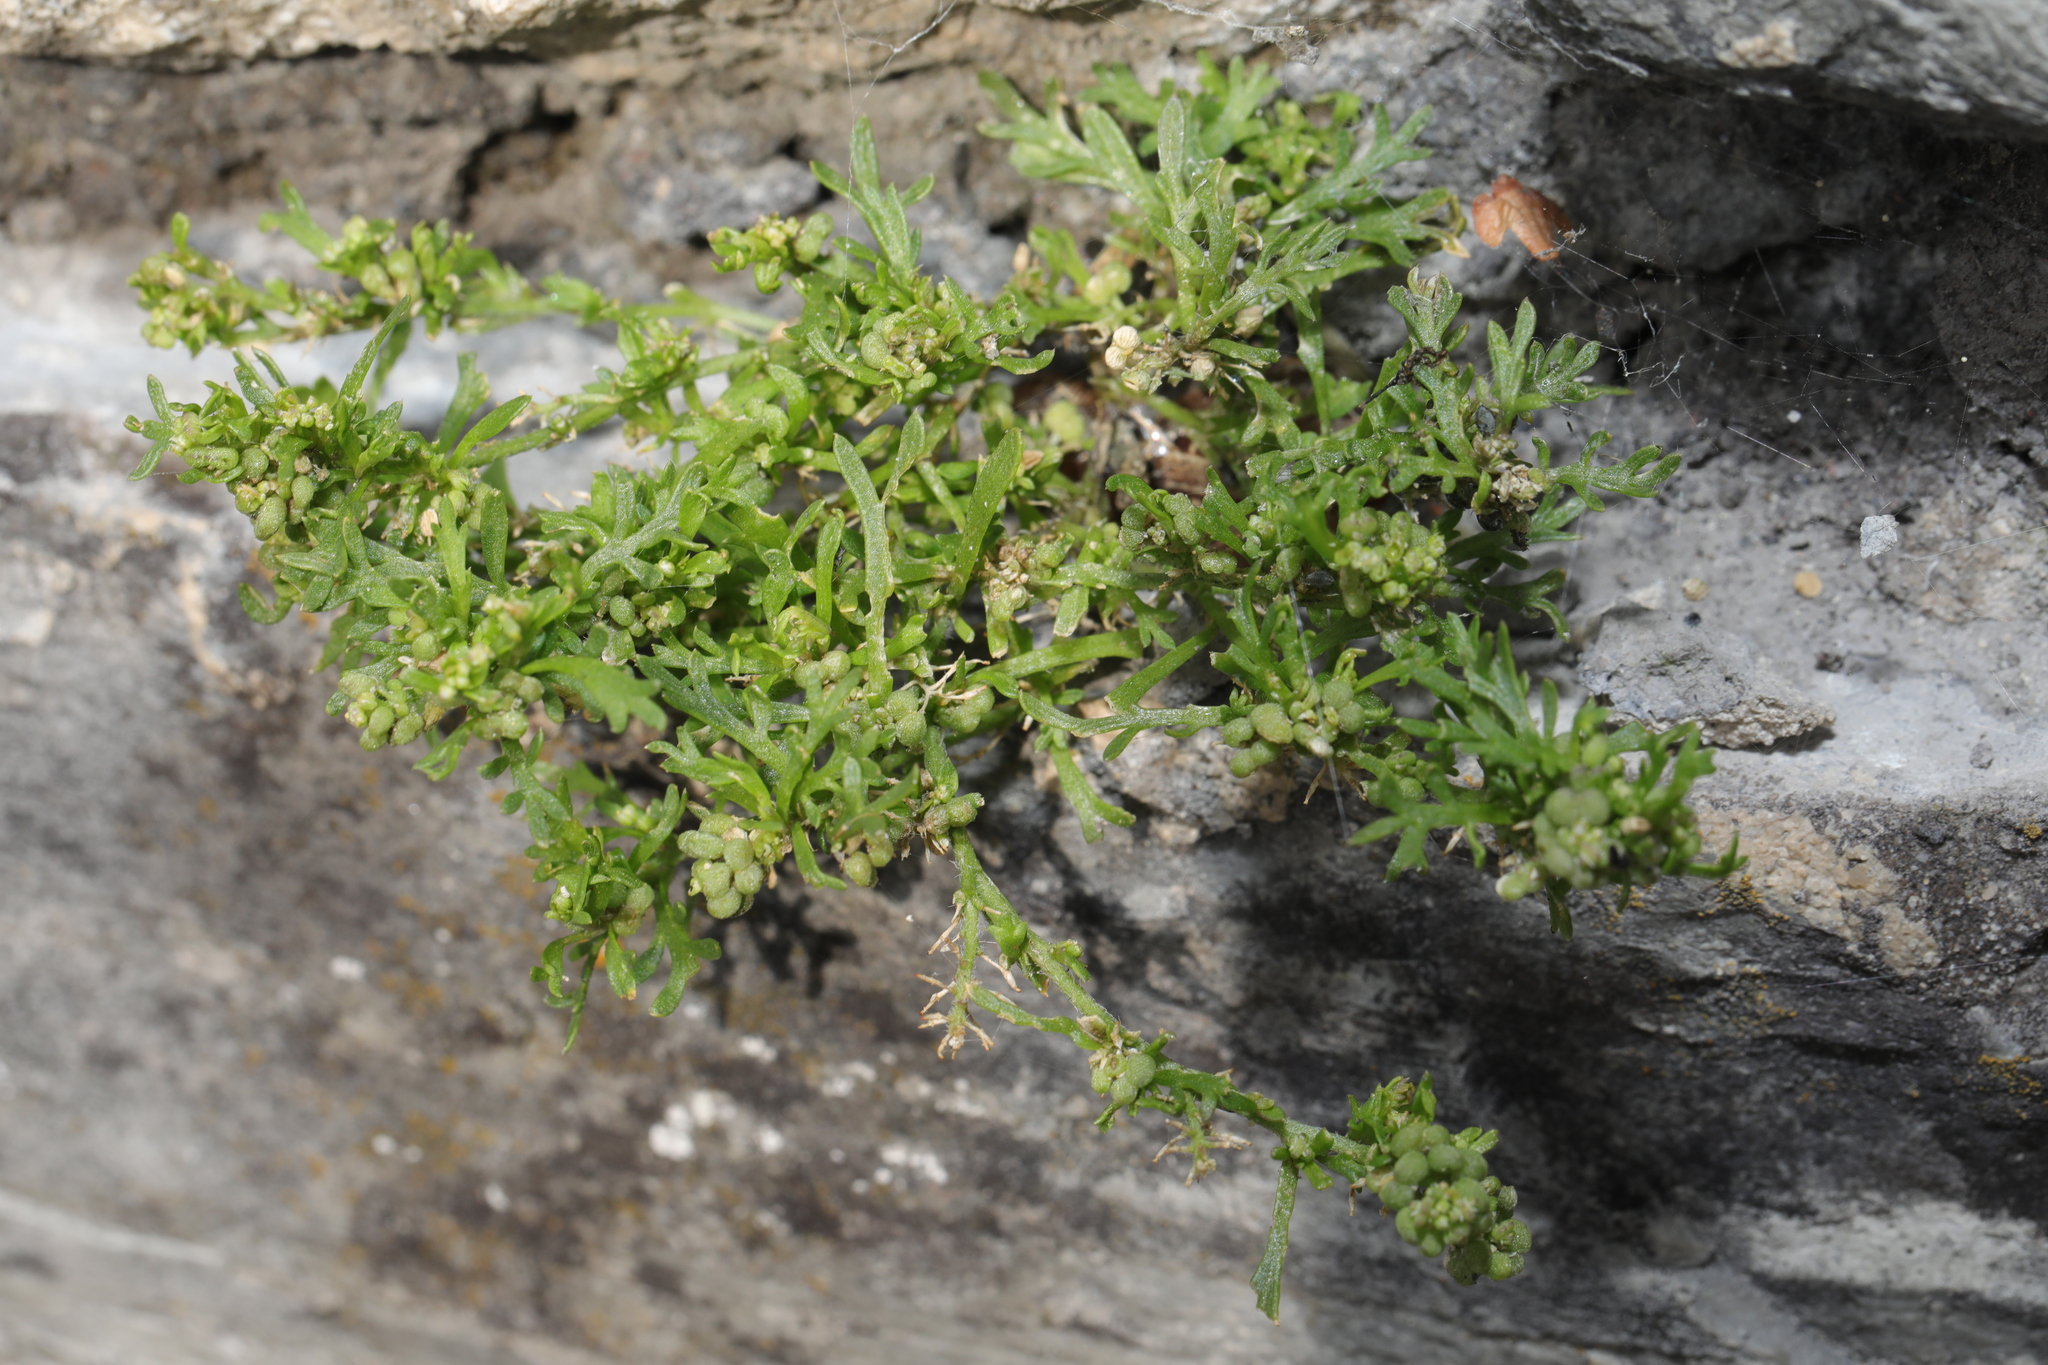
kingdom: Plantae
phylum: Tracheophyta
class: Magnoliopsida
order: Brassicales
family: Brassicaceae
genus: Lepidium
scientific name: Lepidium didymum
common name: Lesser swinecress
